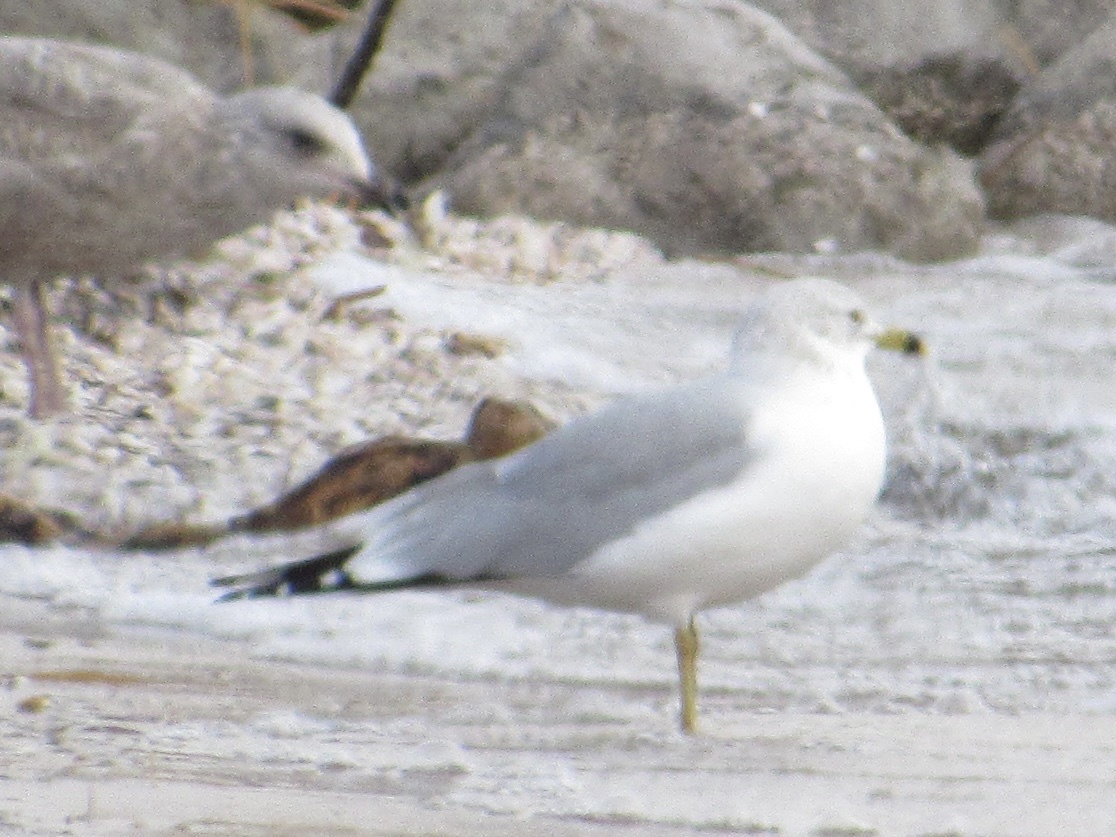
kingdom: Animalia
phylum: Chordata
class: Aves
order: Charadriiformes
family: Laridae
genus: Larus
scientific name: Larus delawarensis
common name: Ring-billed gull
